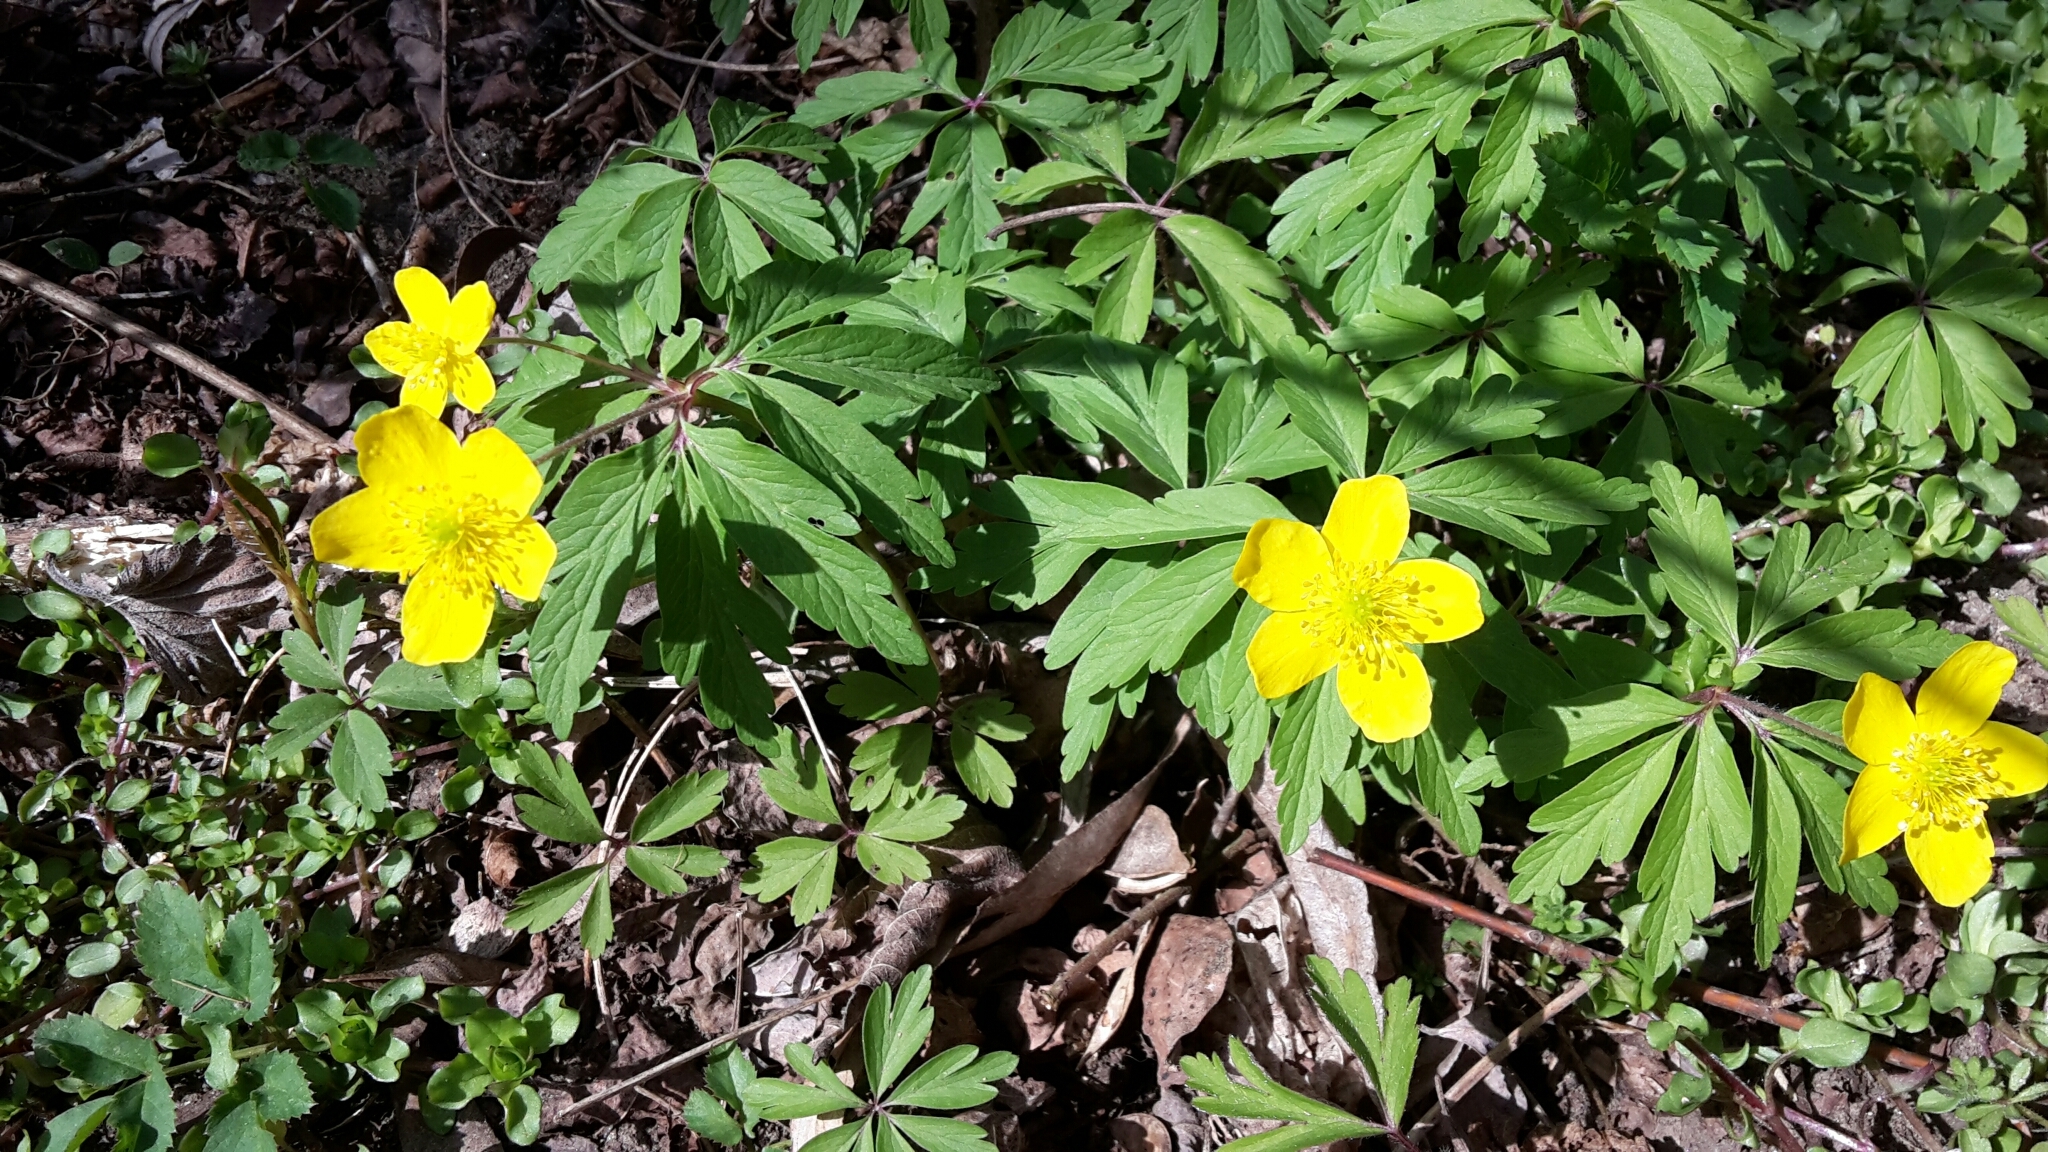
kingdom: Plantae
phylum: Tracheophyta
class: Magnoliopsida
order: Ranunculales
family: Ranunculaceae
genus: Anemone
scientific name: Anemone ranunculoides
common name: Yellow anemone
